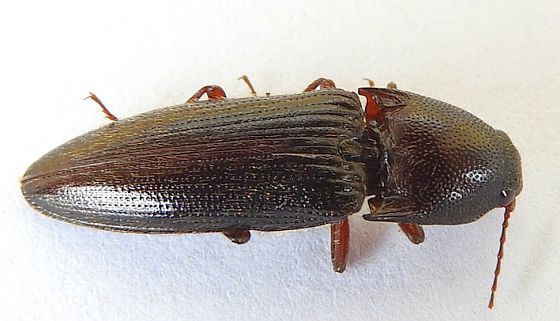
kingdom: Animalia
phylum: Arthropoda
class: Insecta
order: Coleoptera
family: Elateridae
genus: Melanotus
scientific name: Melanotus similis
